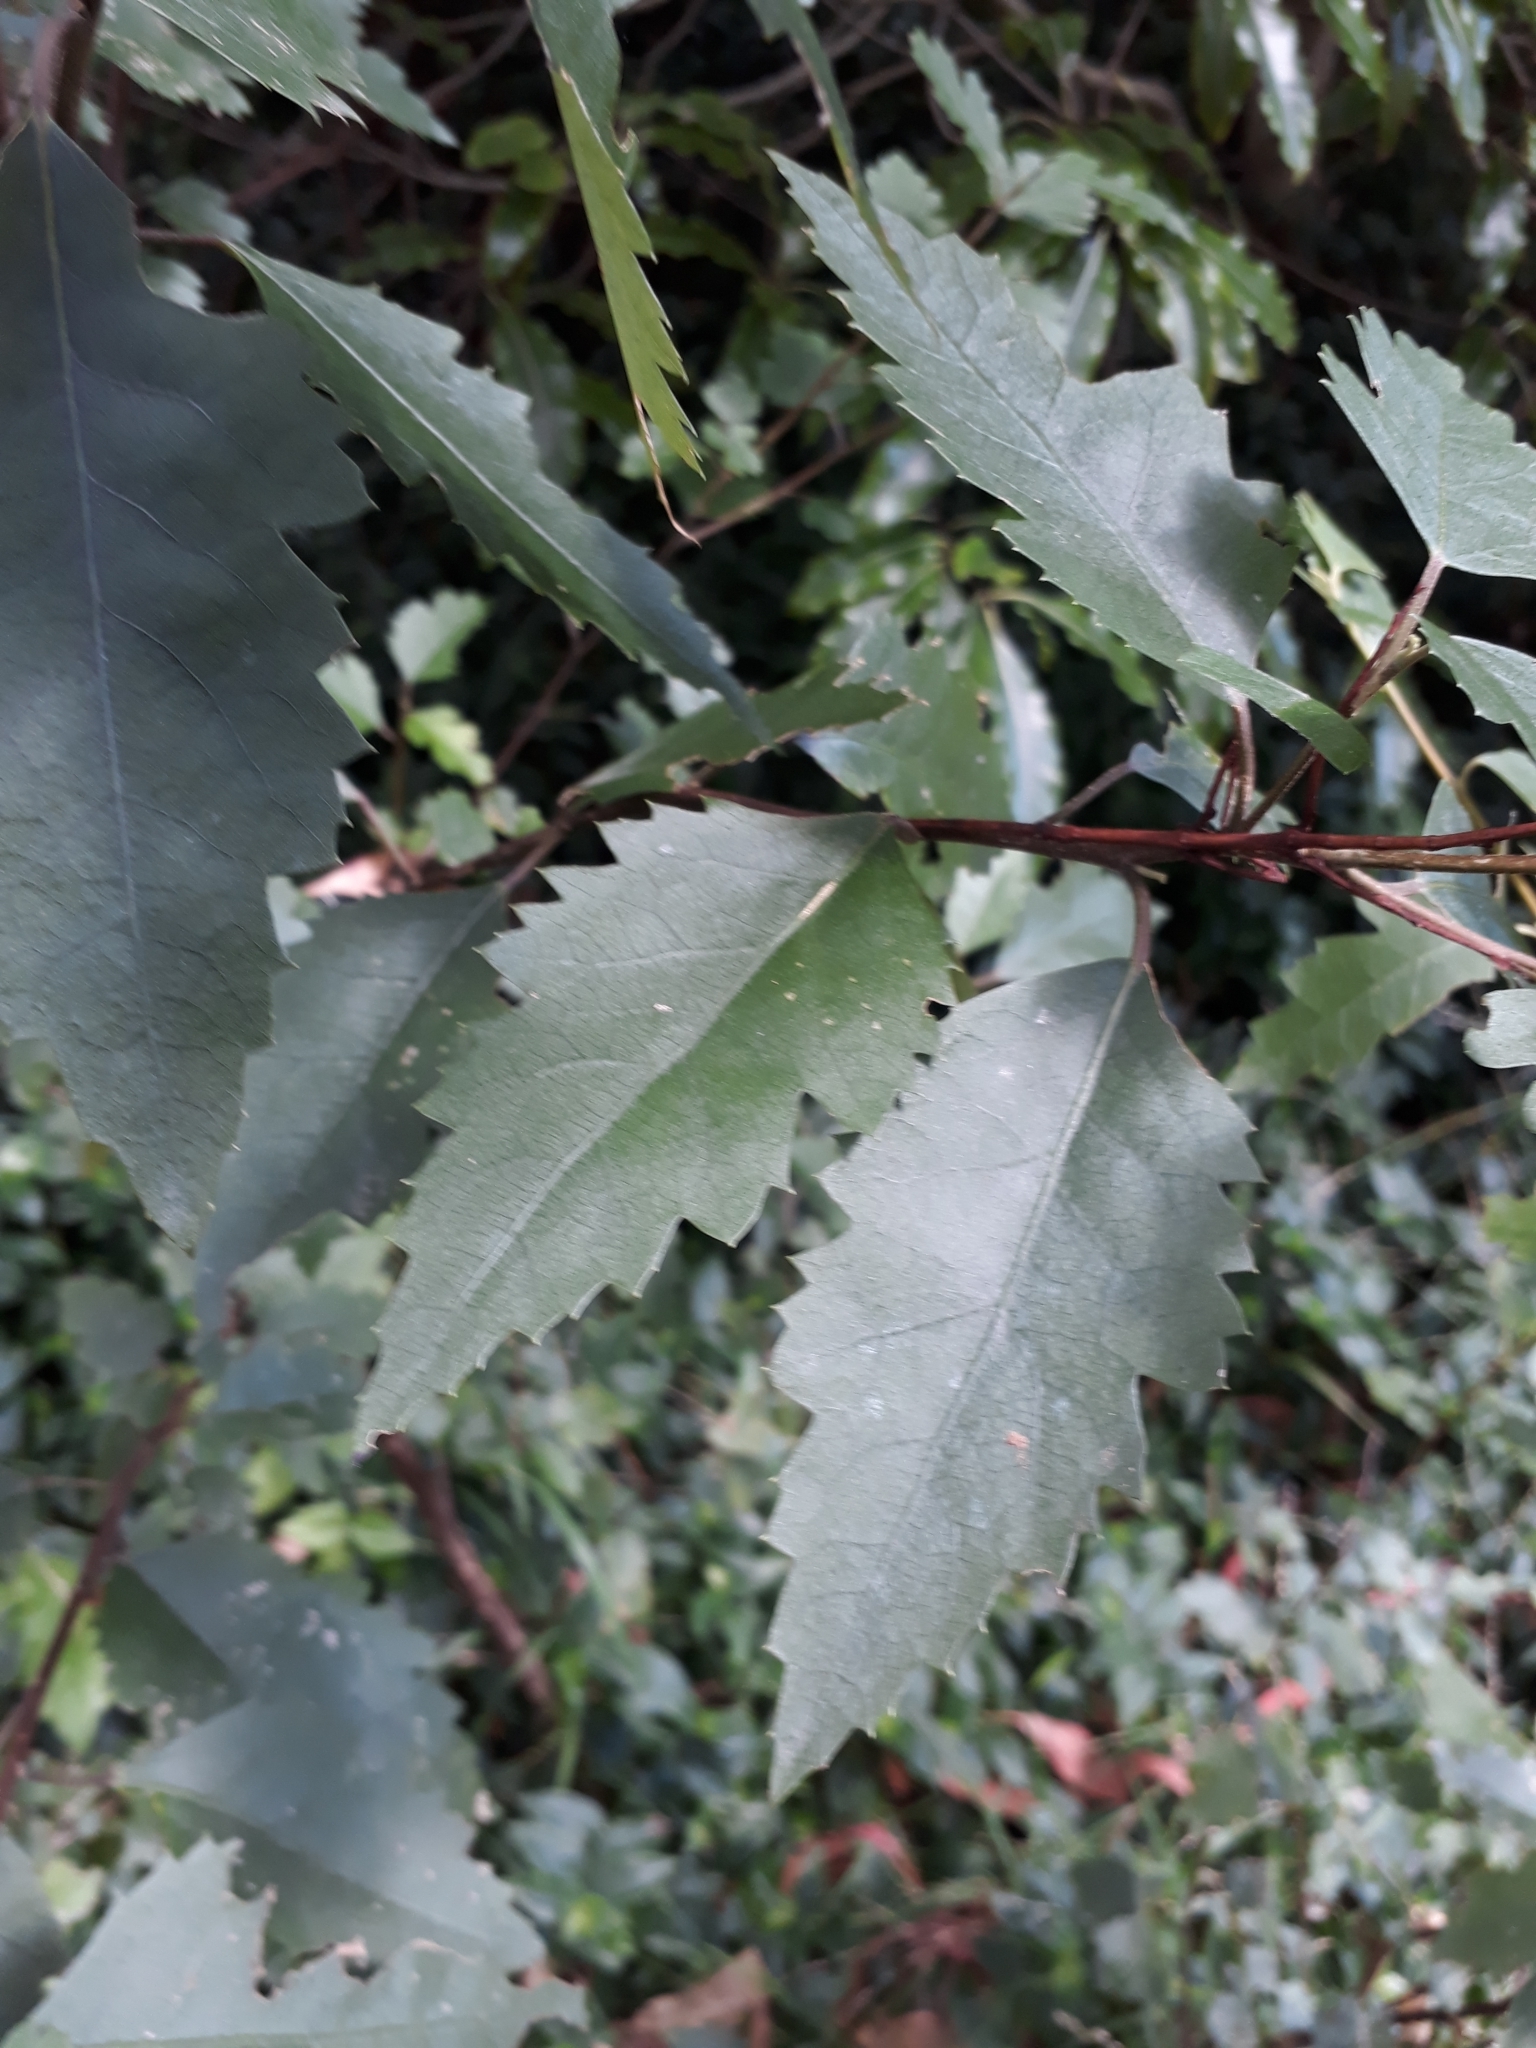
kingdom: Plantae
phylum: Tracheophyta
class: Magnoliopsida
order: Malvales
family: Malvaceae
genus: Hoheria
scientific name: Hoheria sexstylosa
